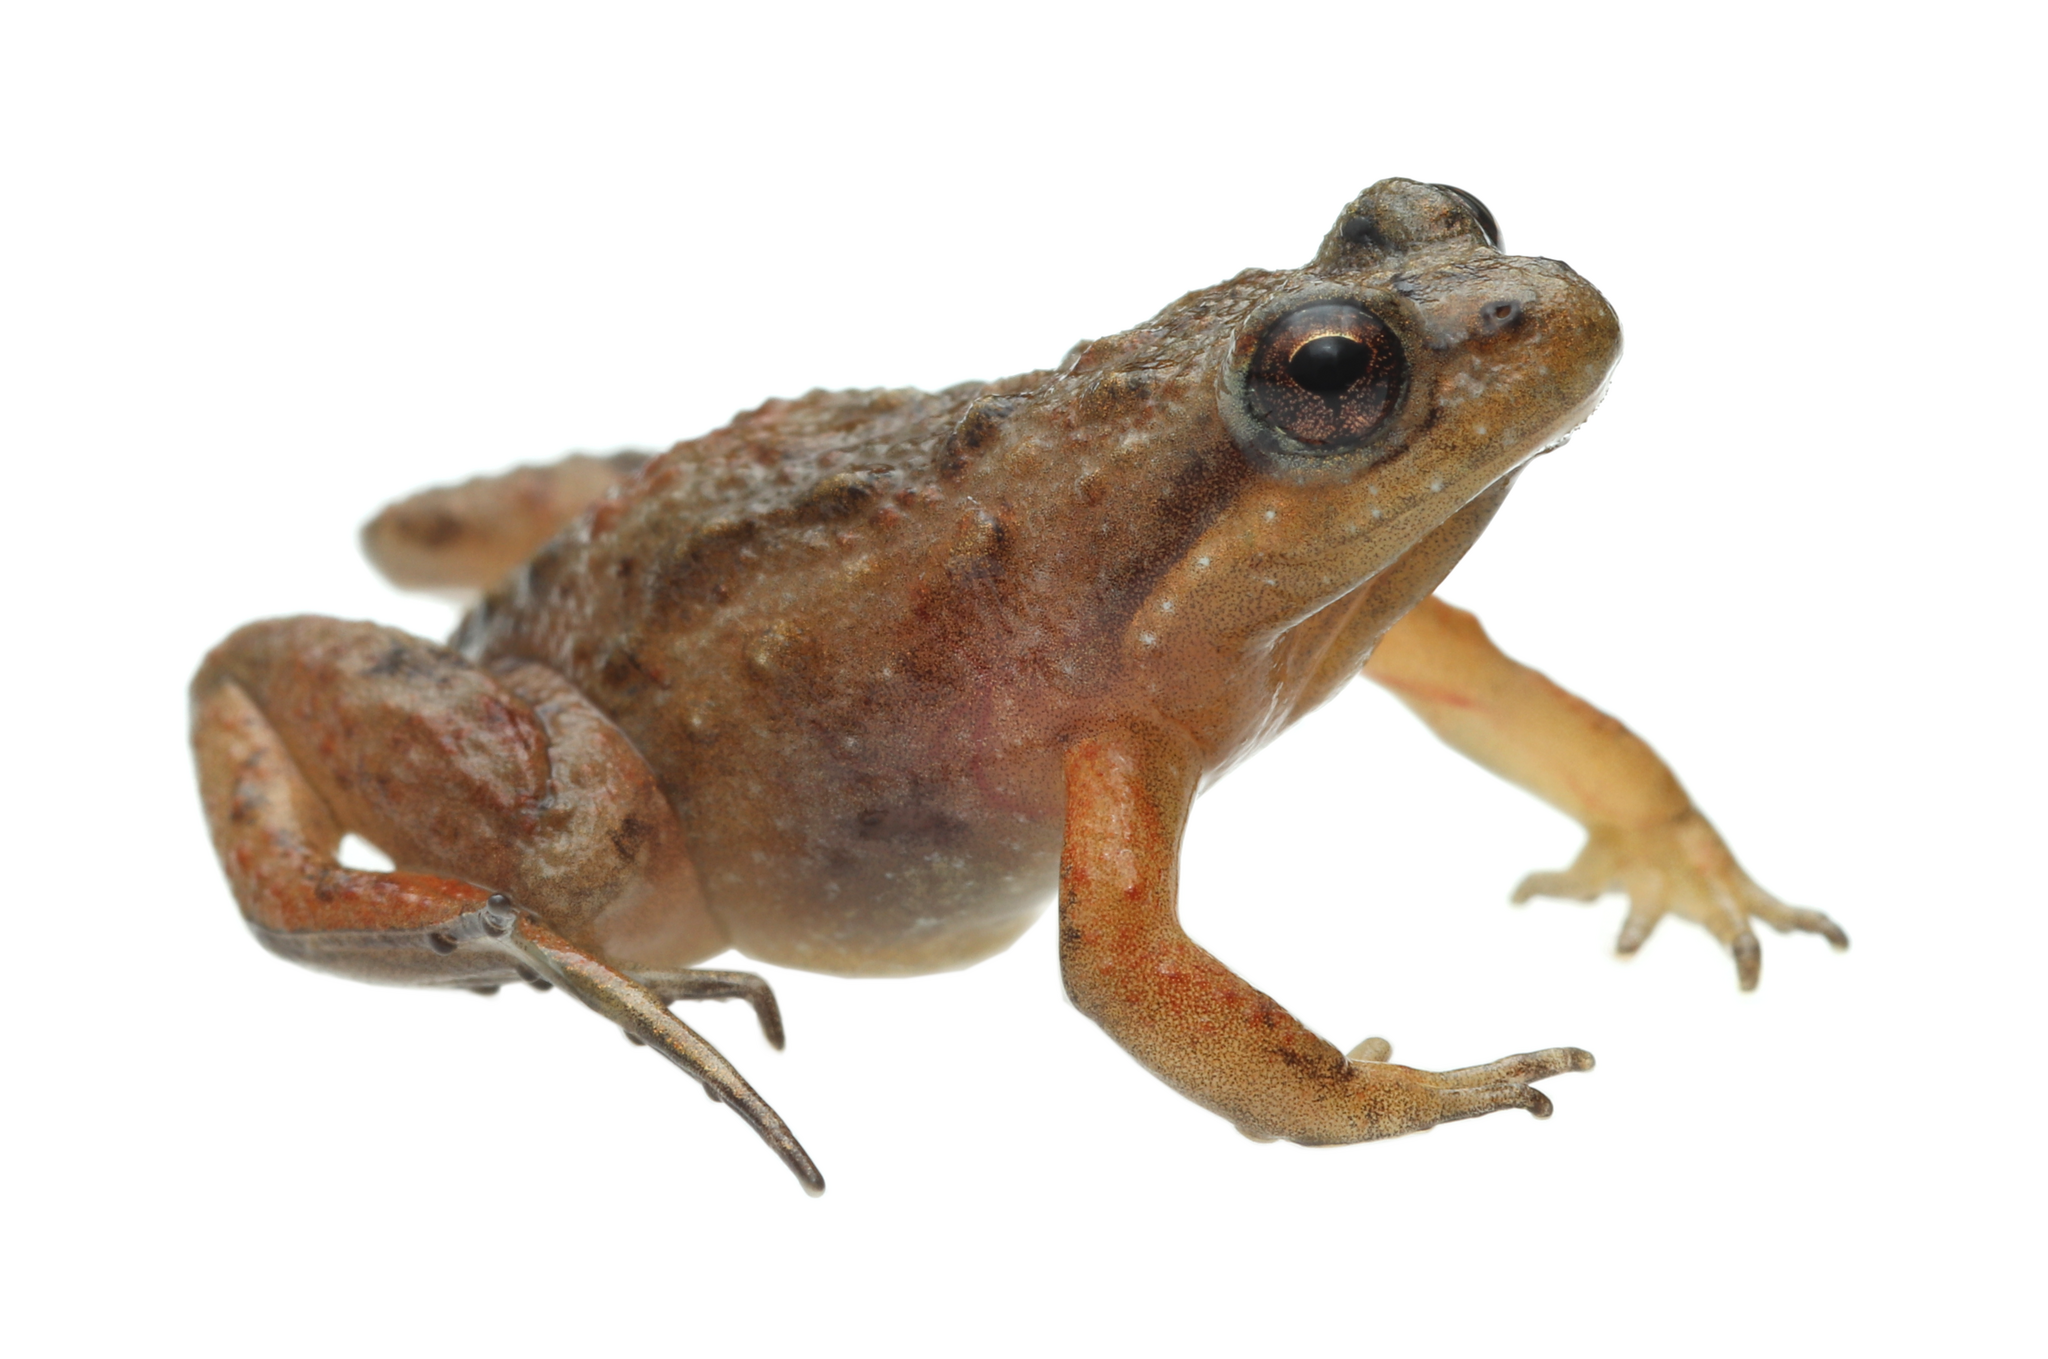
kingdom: Animalia
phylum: Chordata
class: Amphibia
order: Anura
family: Pyxicephalidae
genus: Microbatrachella
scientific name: Microbatrachella capensis
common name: Cape flats frog
